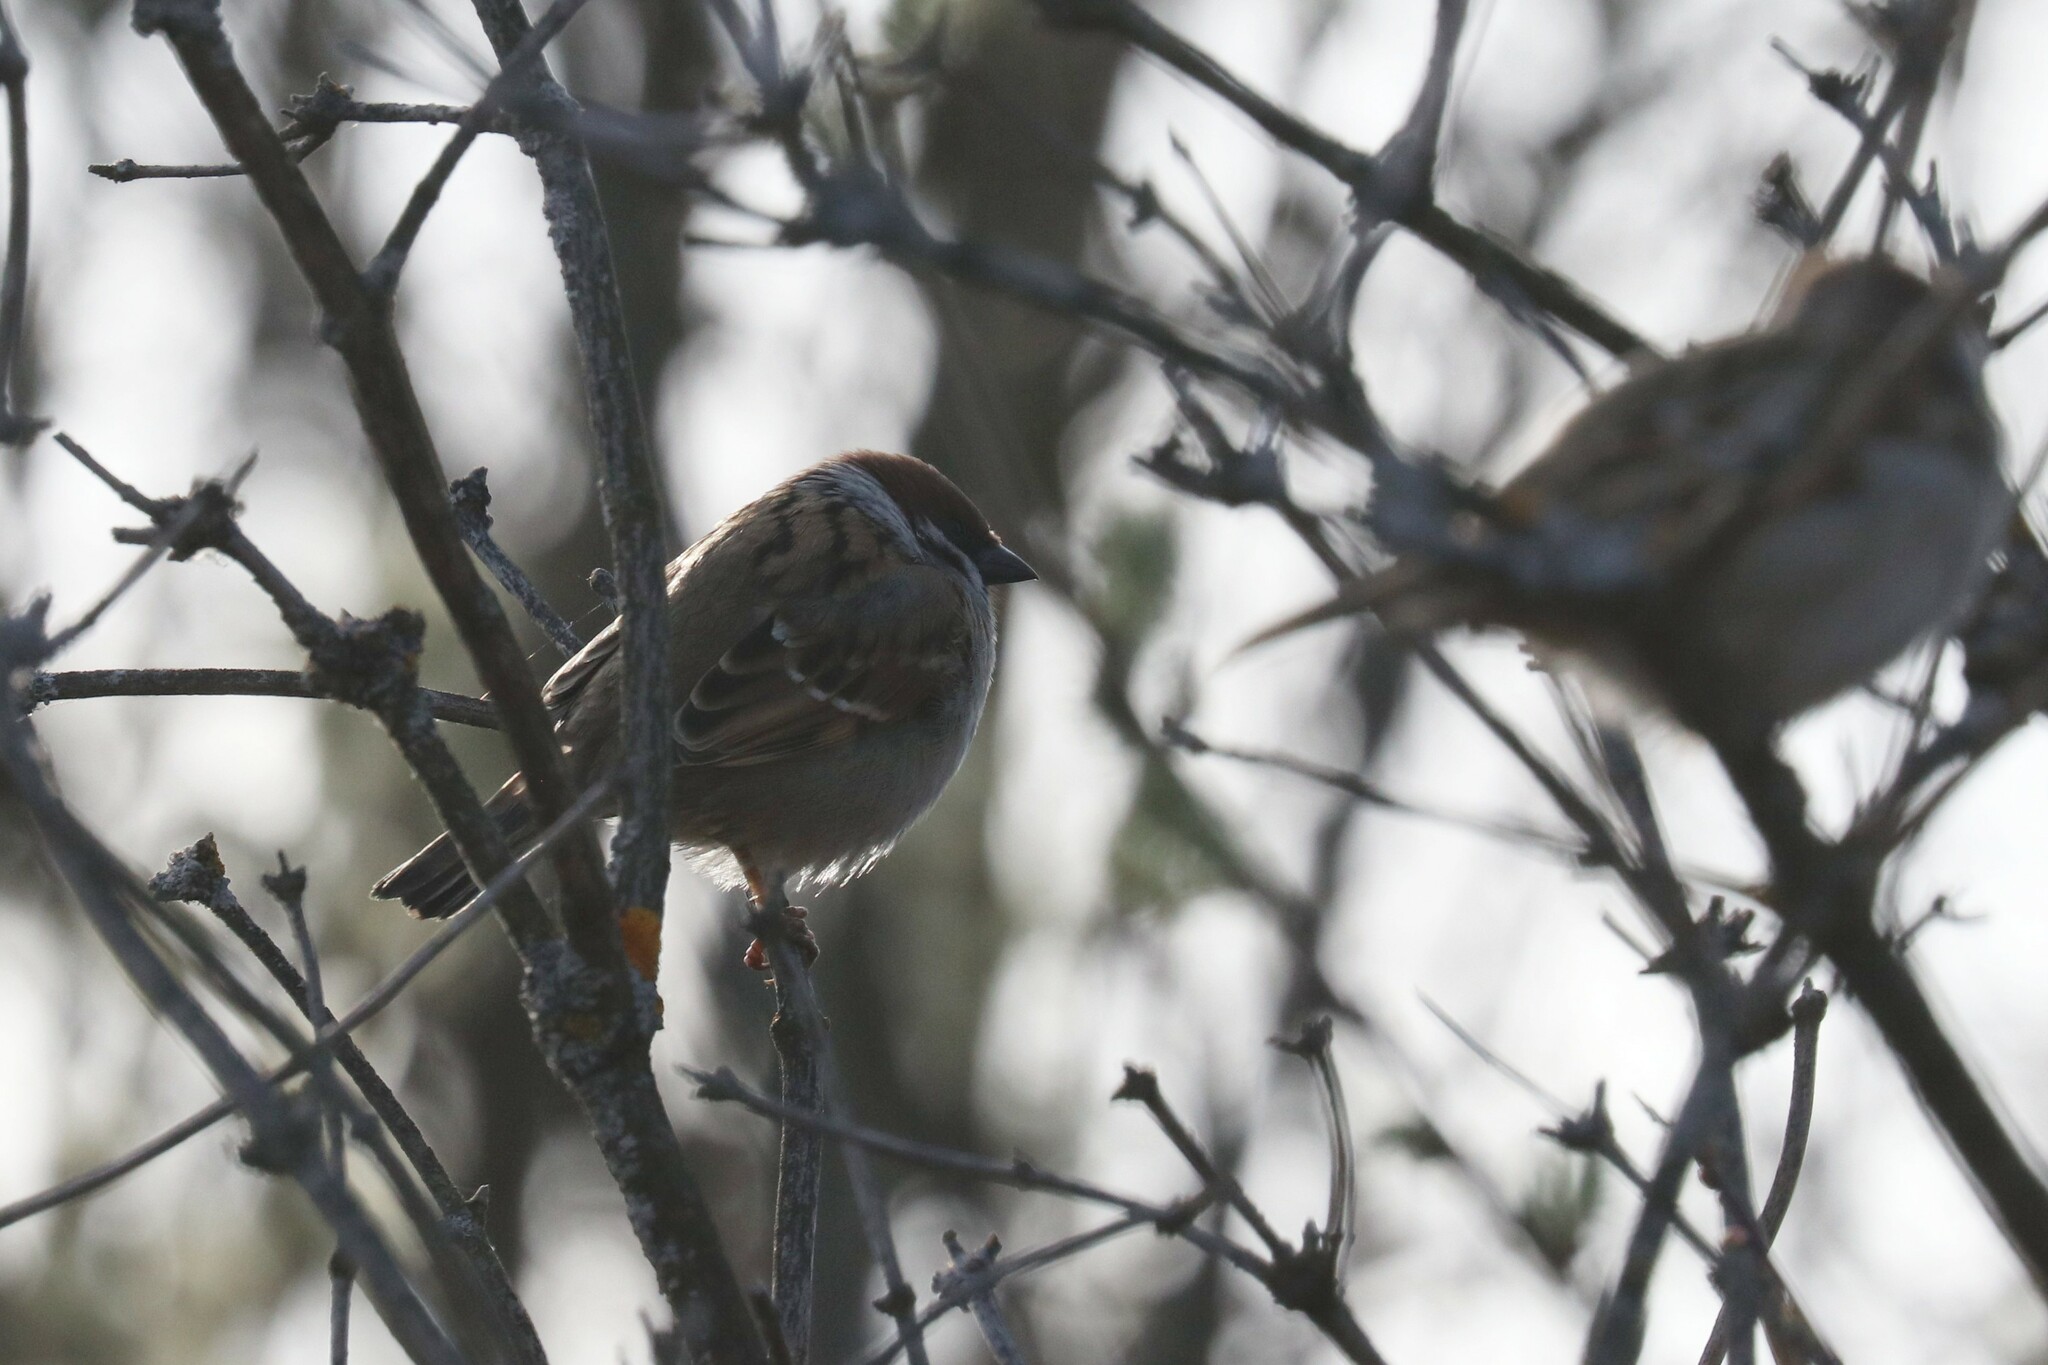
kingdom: Animalia
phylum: Chordata
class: Aves
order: Passeriformes
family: Passeridae
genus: Passer
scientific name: Passer montanus
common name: Eurasian tree sparrow
